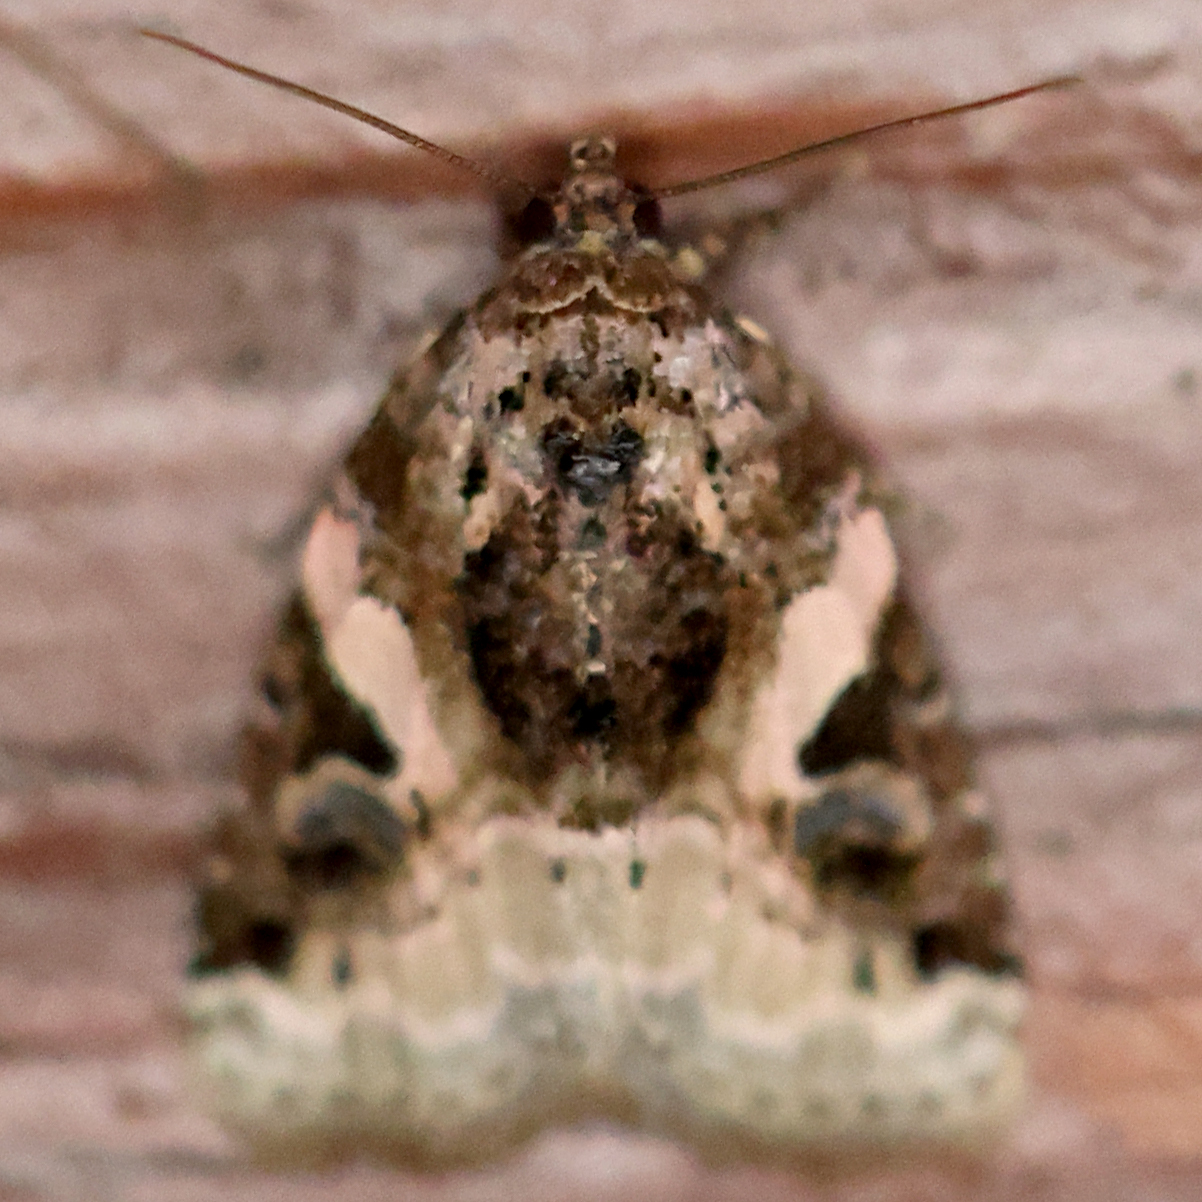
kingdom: Animalia
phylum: Arthropoda
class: Insecta
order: Lepidoptera
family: Noctuidae
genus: Pseudeustrotia
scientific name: Pseudeustrotia carneola
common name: Pink-barred lithacodia moth
